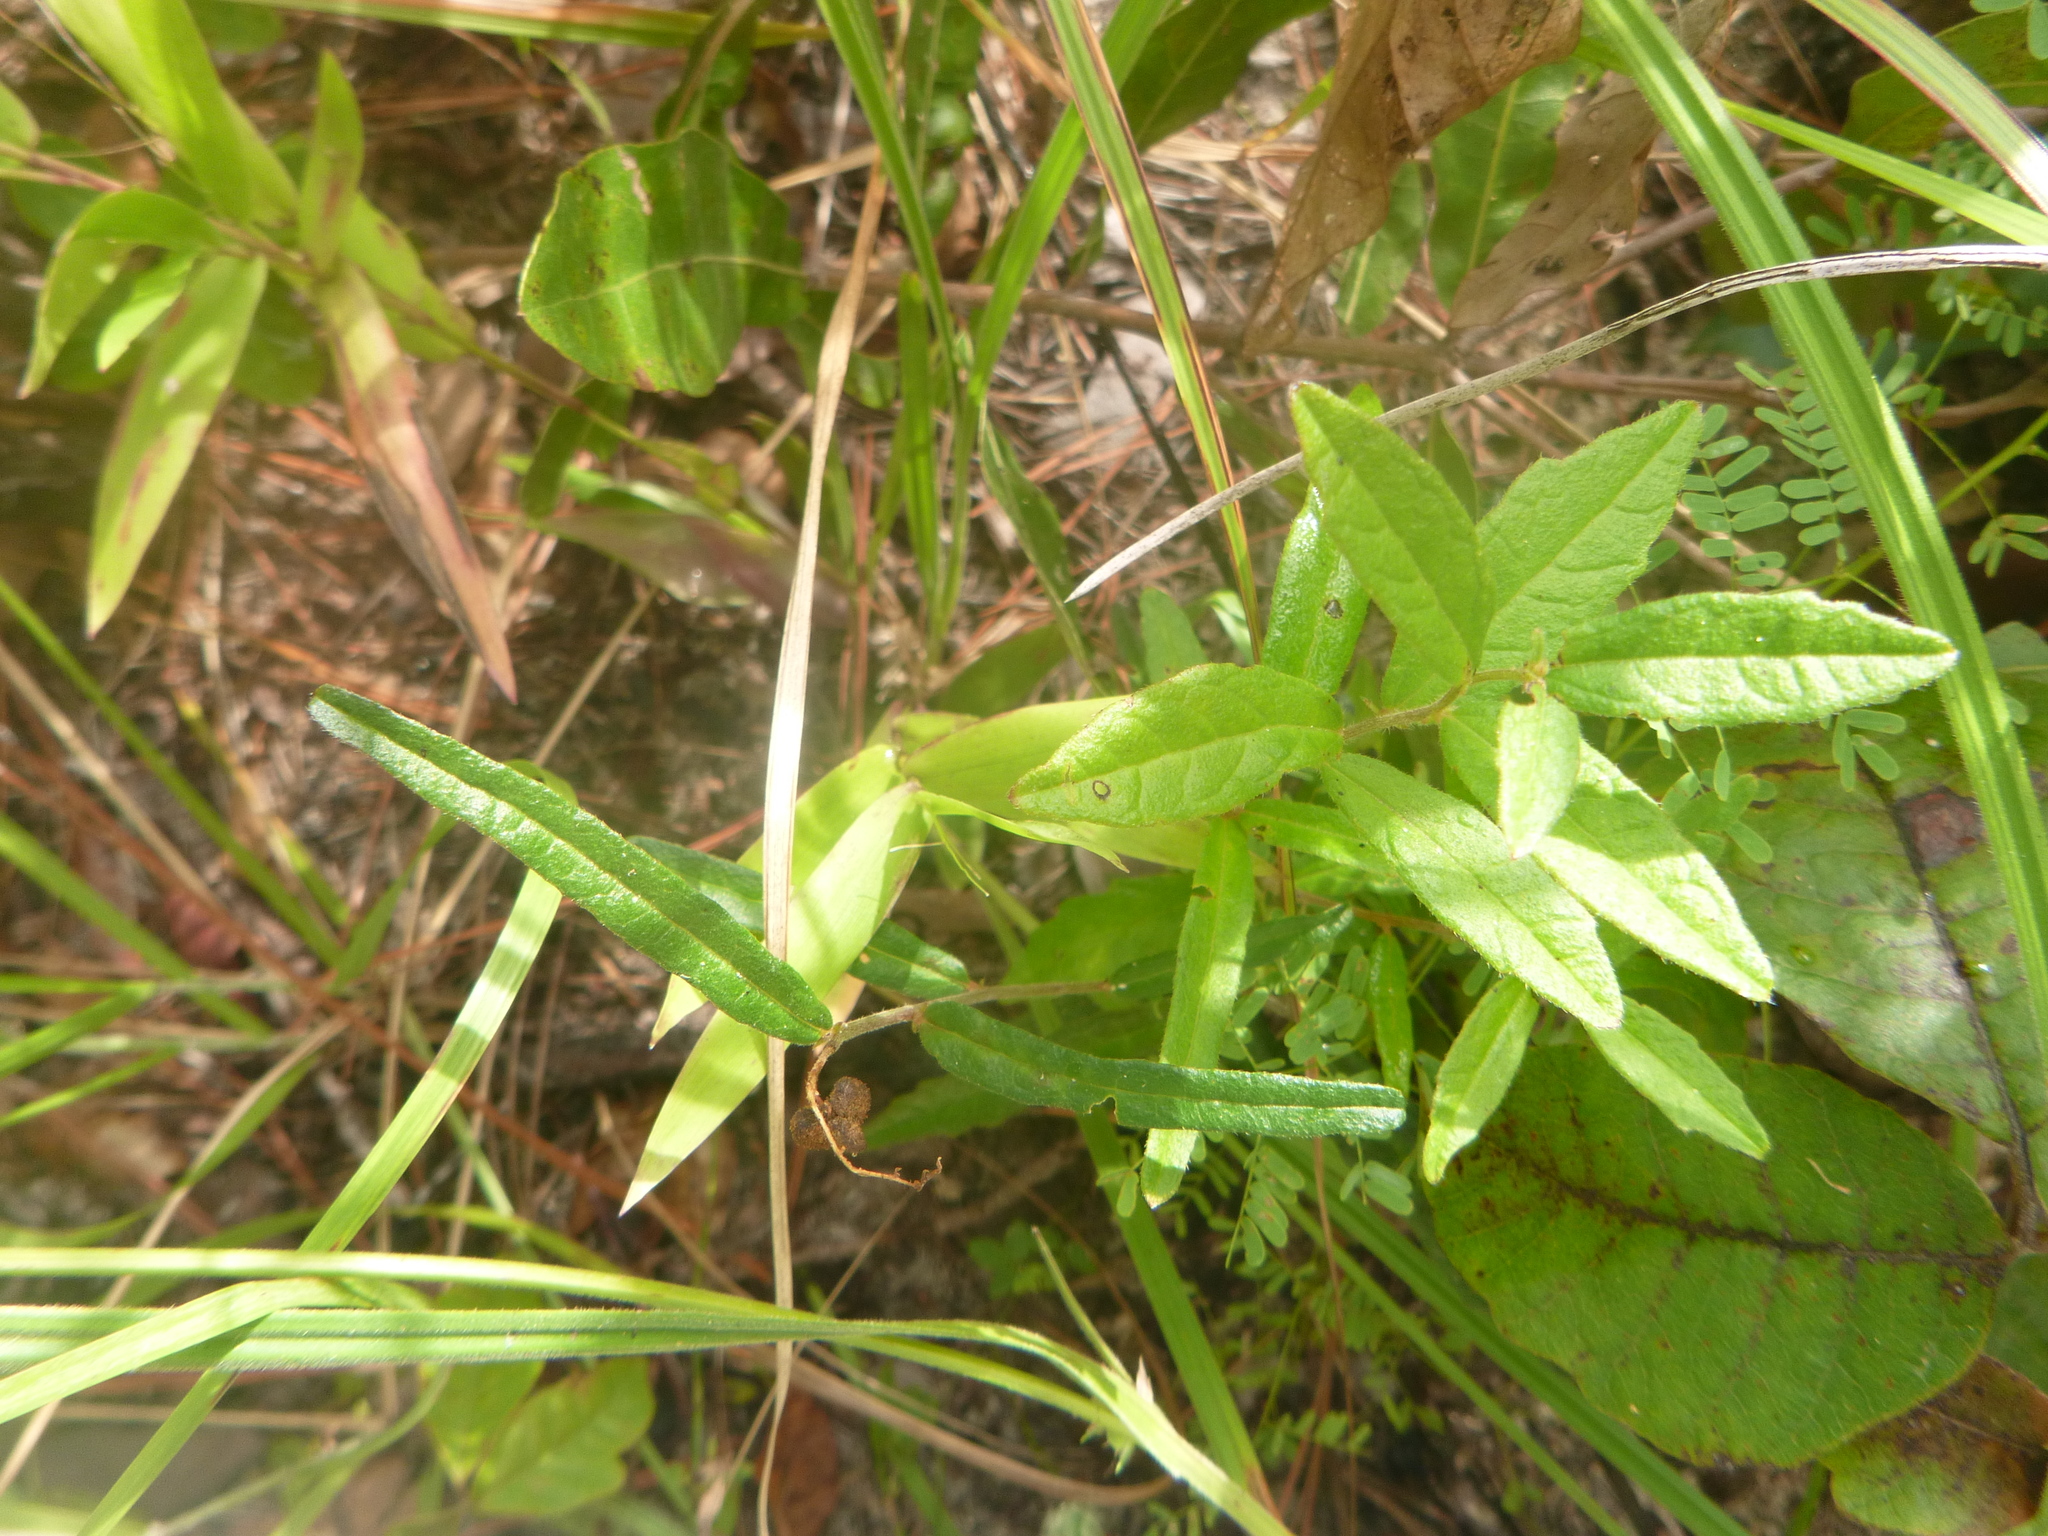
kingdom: Plantae
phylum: Tracheophyta
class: Magnoliopsida
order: Malpighiales
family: Euphorbiaceae
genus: Tragia
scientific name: Tragia urens
